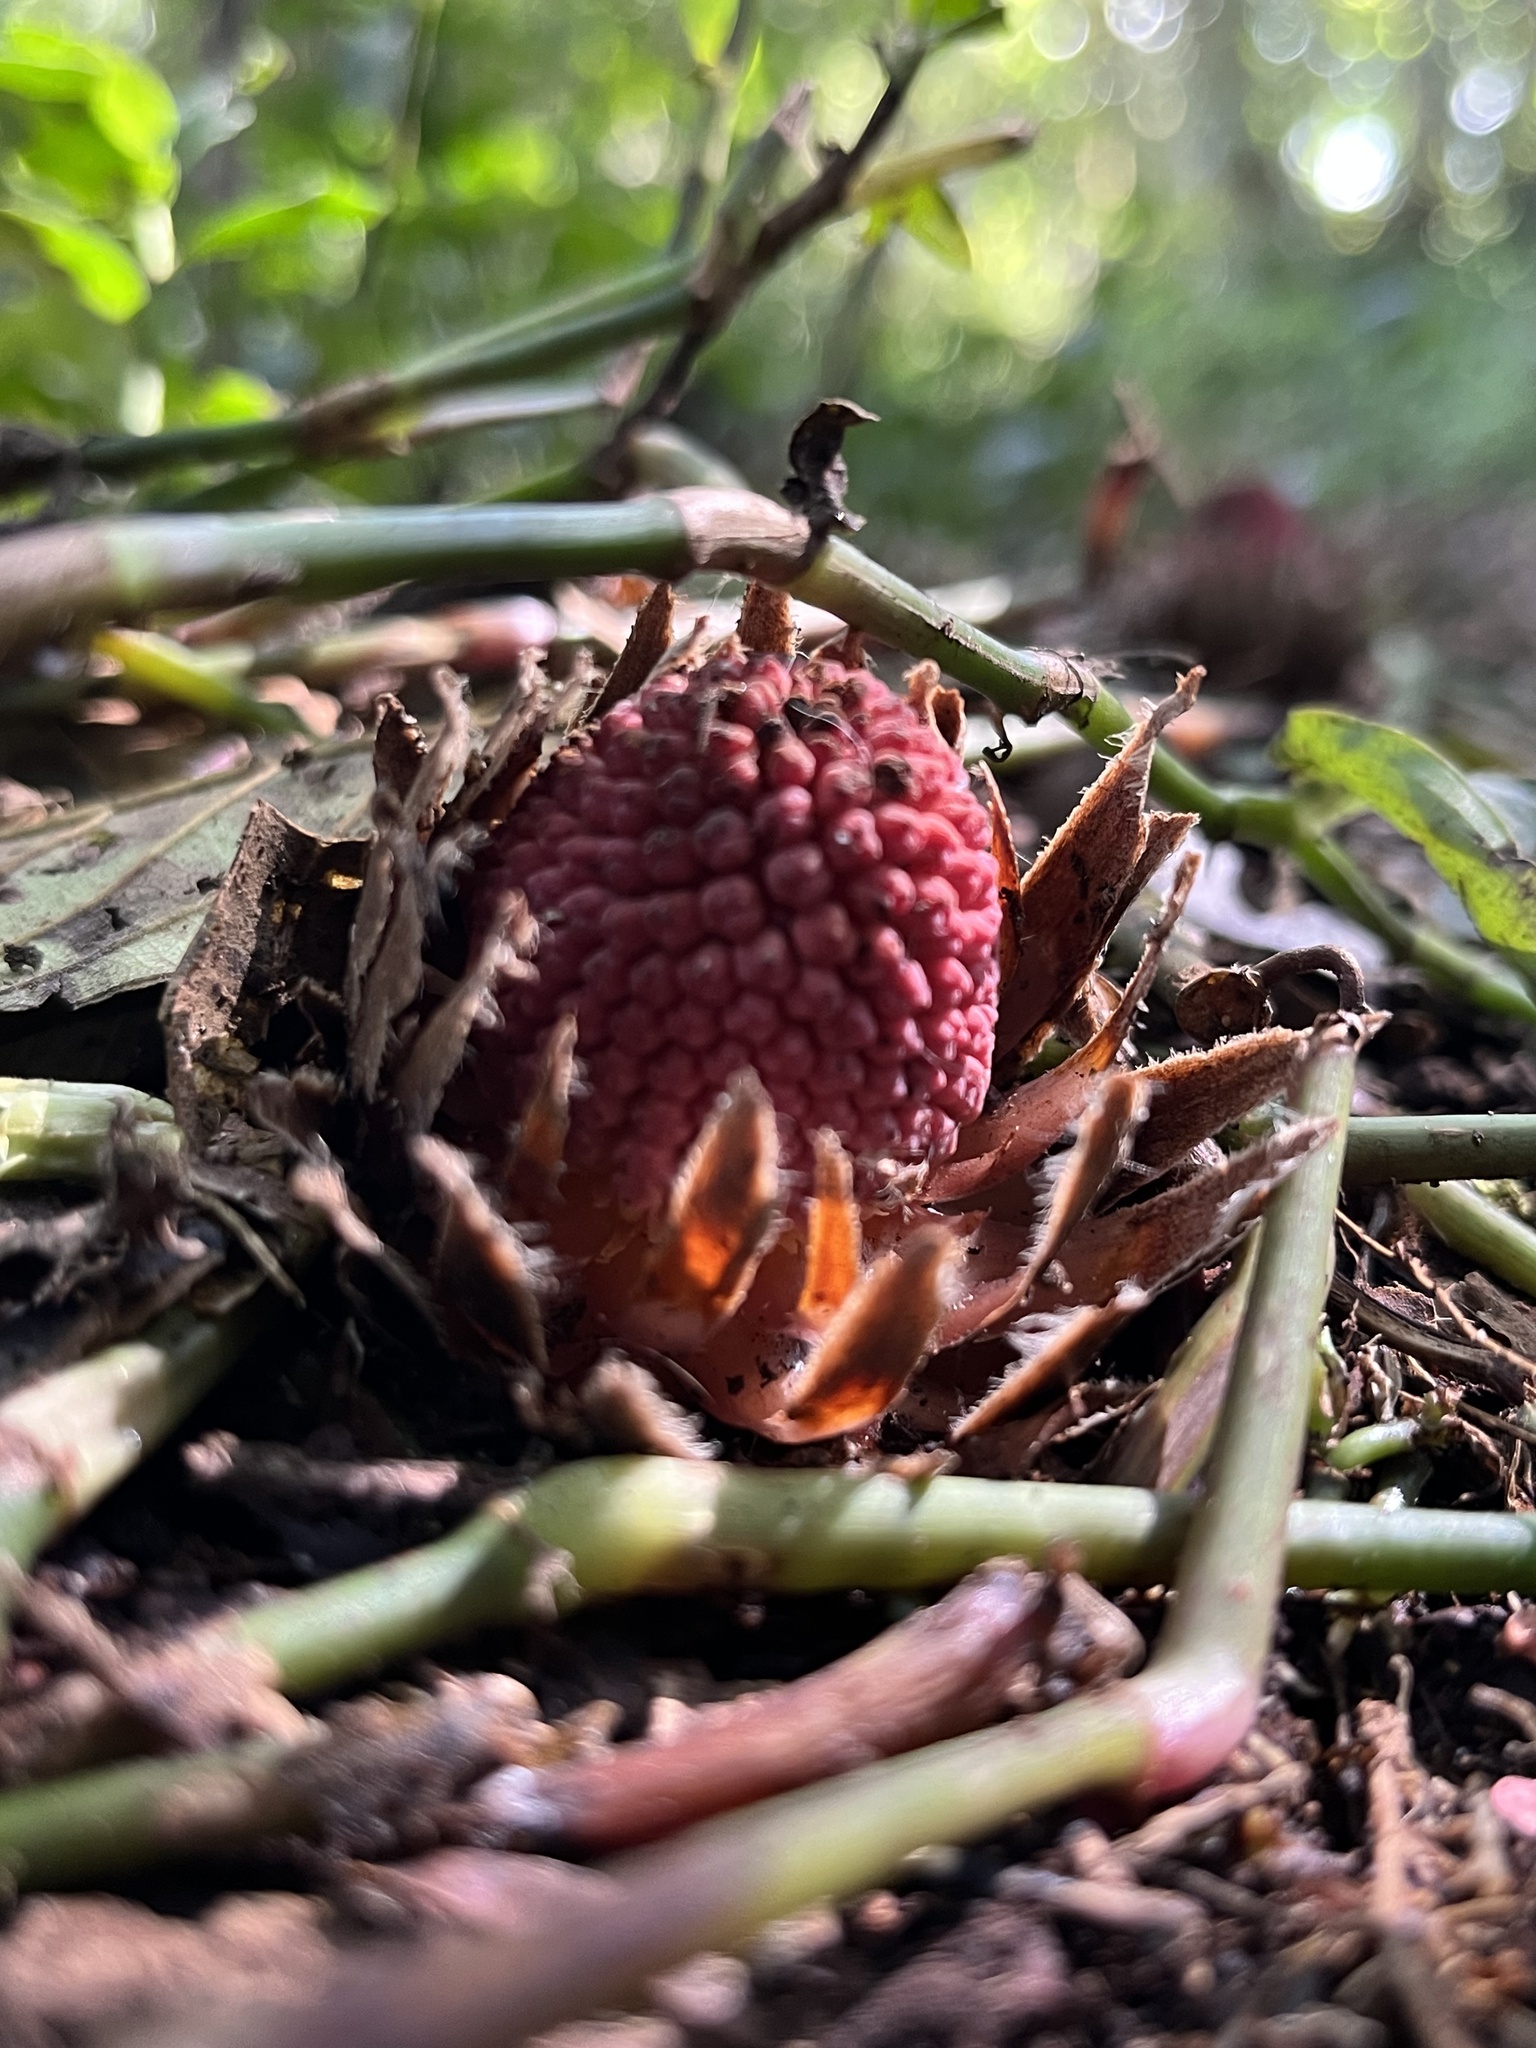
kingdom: Plantae
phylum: Tracheophyta
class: Magnoliopsida
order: Santalales
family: Balanophoraceae
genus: Langsdorffia
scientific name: Langsdorffia hypogaea
